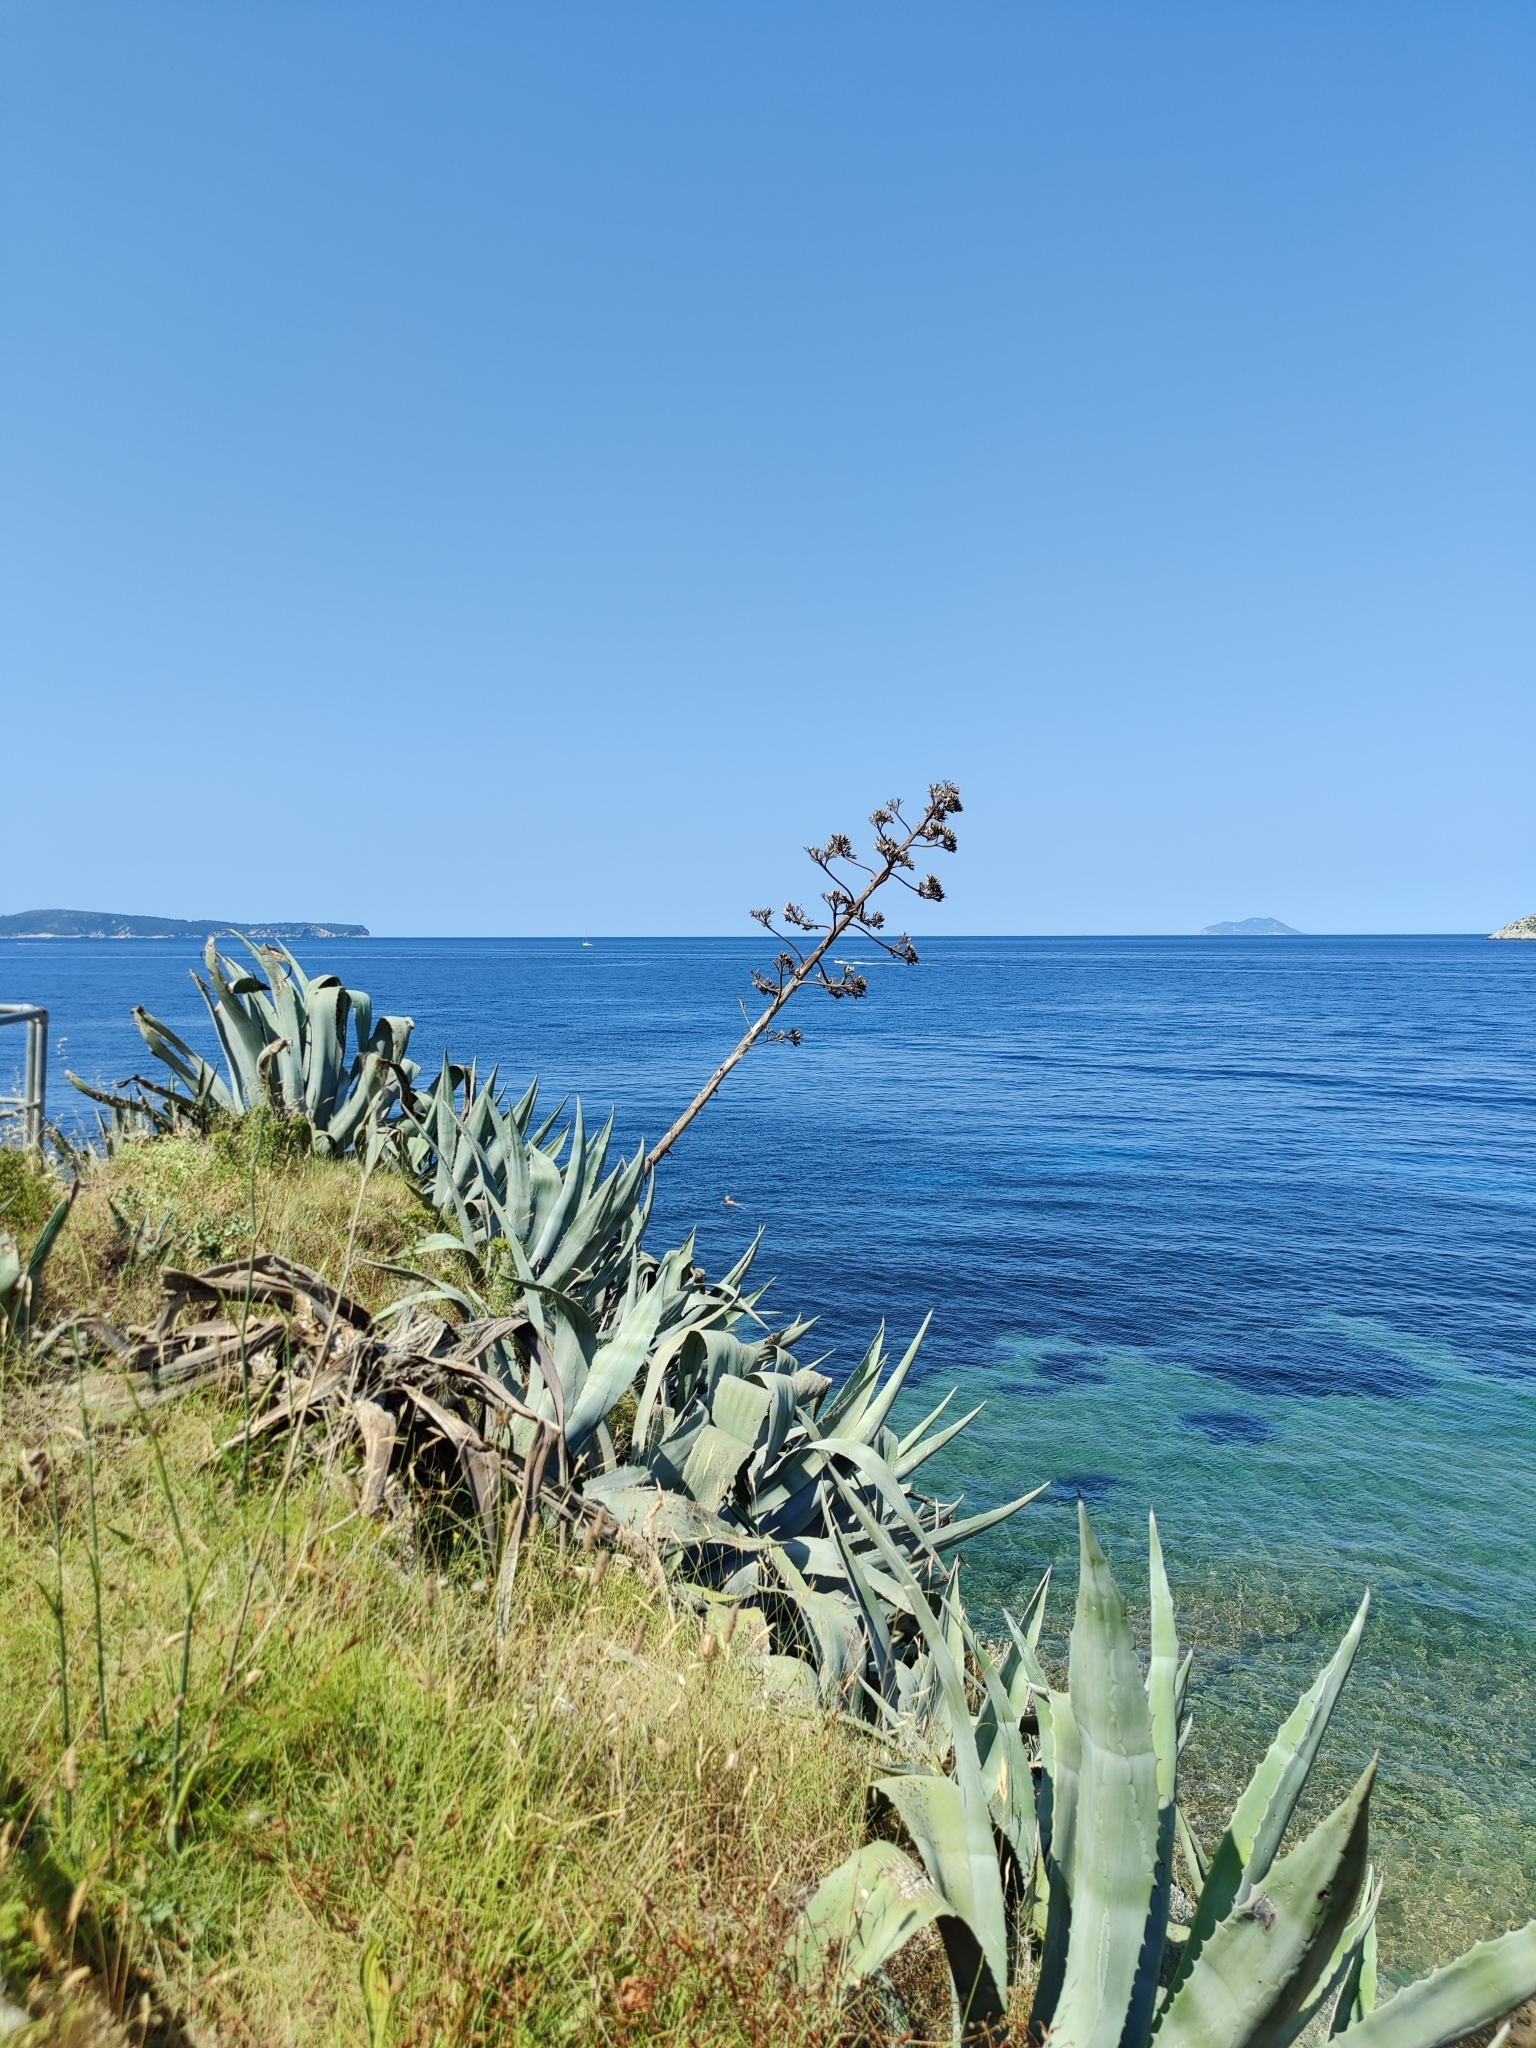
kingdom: Plantae
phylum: Tracheophyta
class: Liliopsida
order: Asparagales
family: Asparagaceae
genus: Agave
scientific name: Agave americana
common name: Centuryplant
